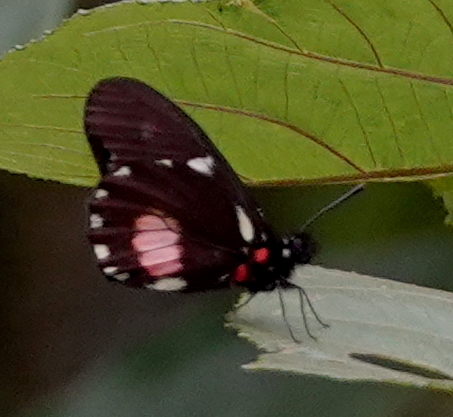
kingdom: Animalia
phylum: Arthropoda
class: Insecta
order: Lepidoptera
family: Pieridae
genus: Archonias
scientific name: Archonias brassolis
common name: Cattleheart white
